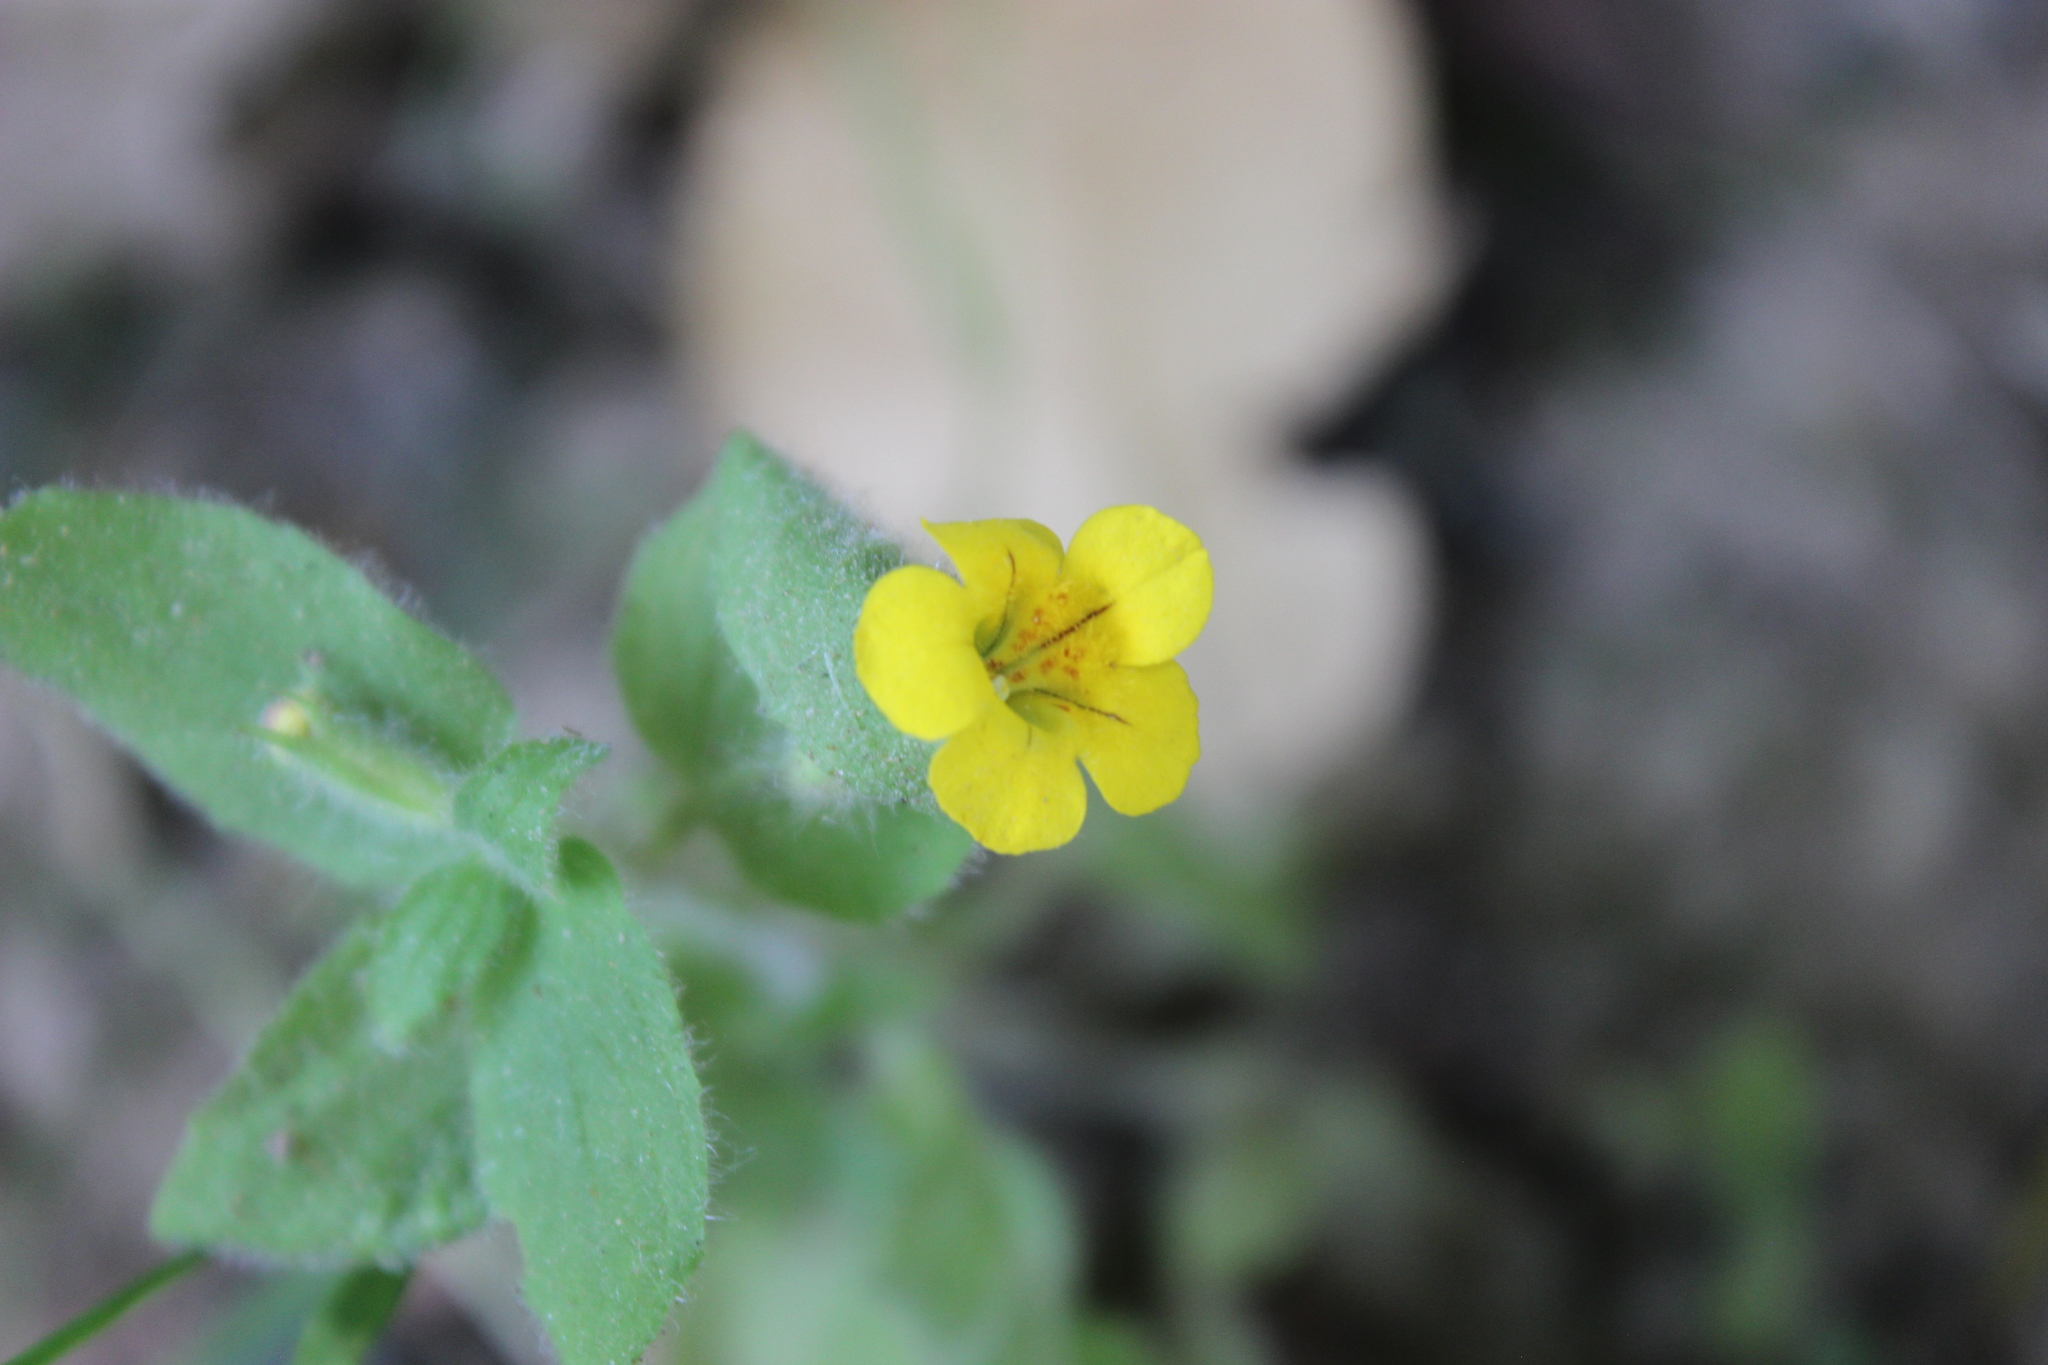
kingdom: Plantae
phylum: Tracheophyta
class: Magnoliopsida
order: Lamiales
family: Phrymaceae
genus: Erythranthe
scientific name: Erythranthe moschata
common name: Muskflower
